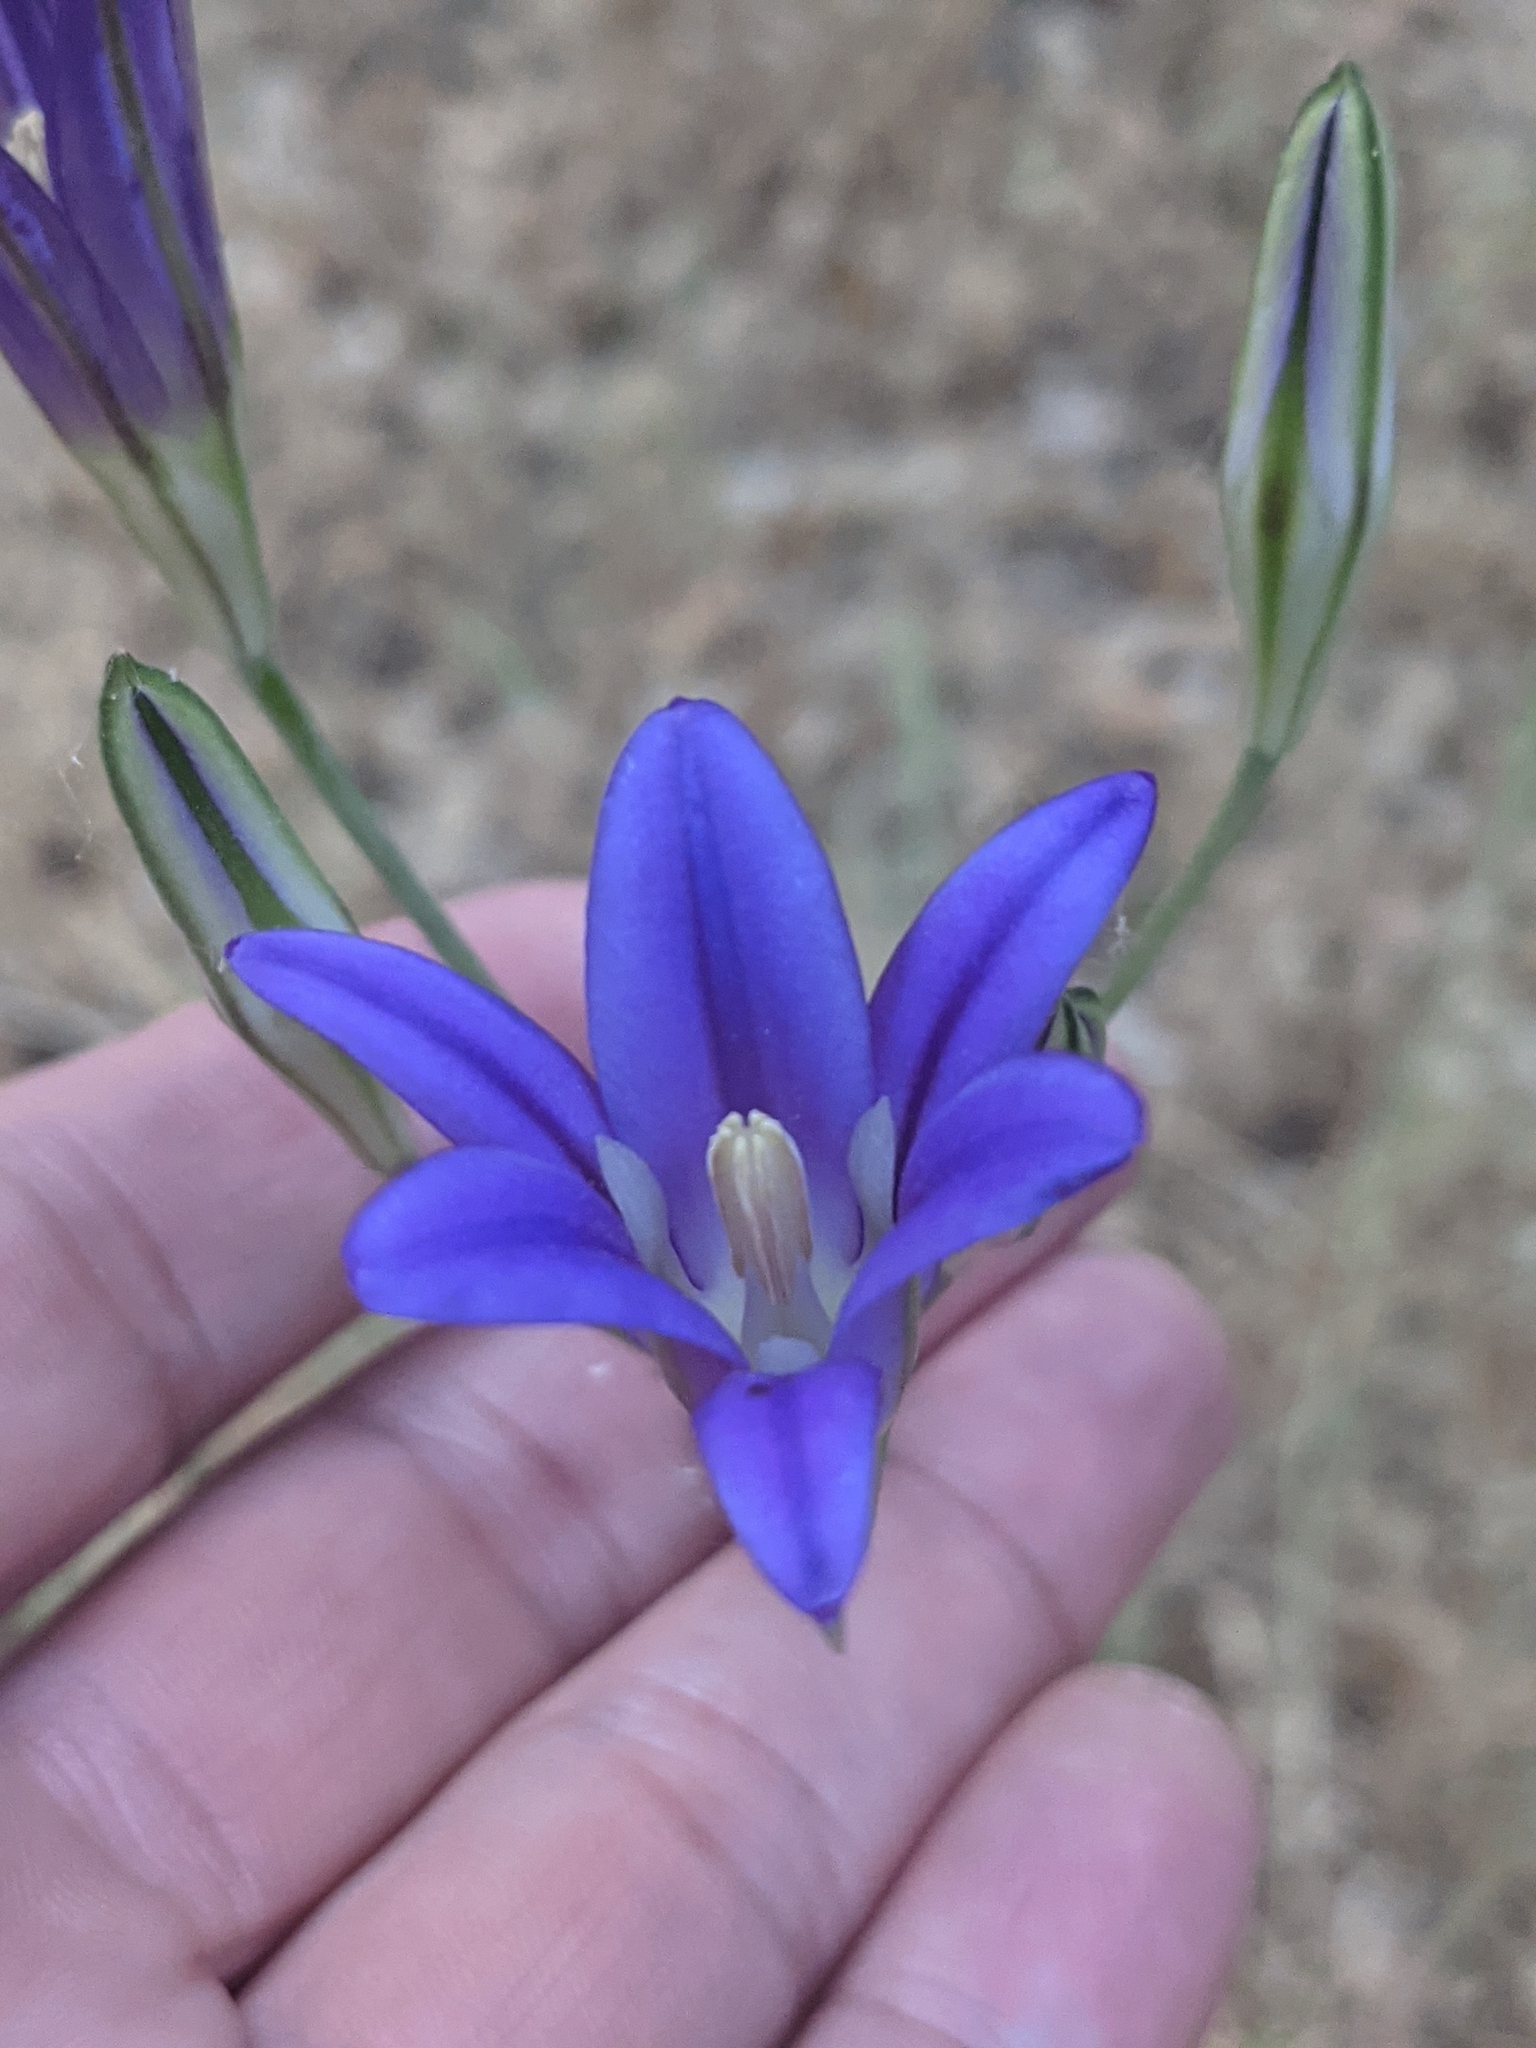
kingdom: Plantae
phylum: Tracheophyta
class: Liliopsida
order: Asparagales
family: Asparagaceae
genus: Brodiaea
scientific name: Brodiaea elegans
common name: Elegant cluster-lily
